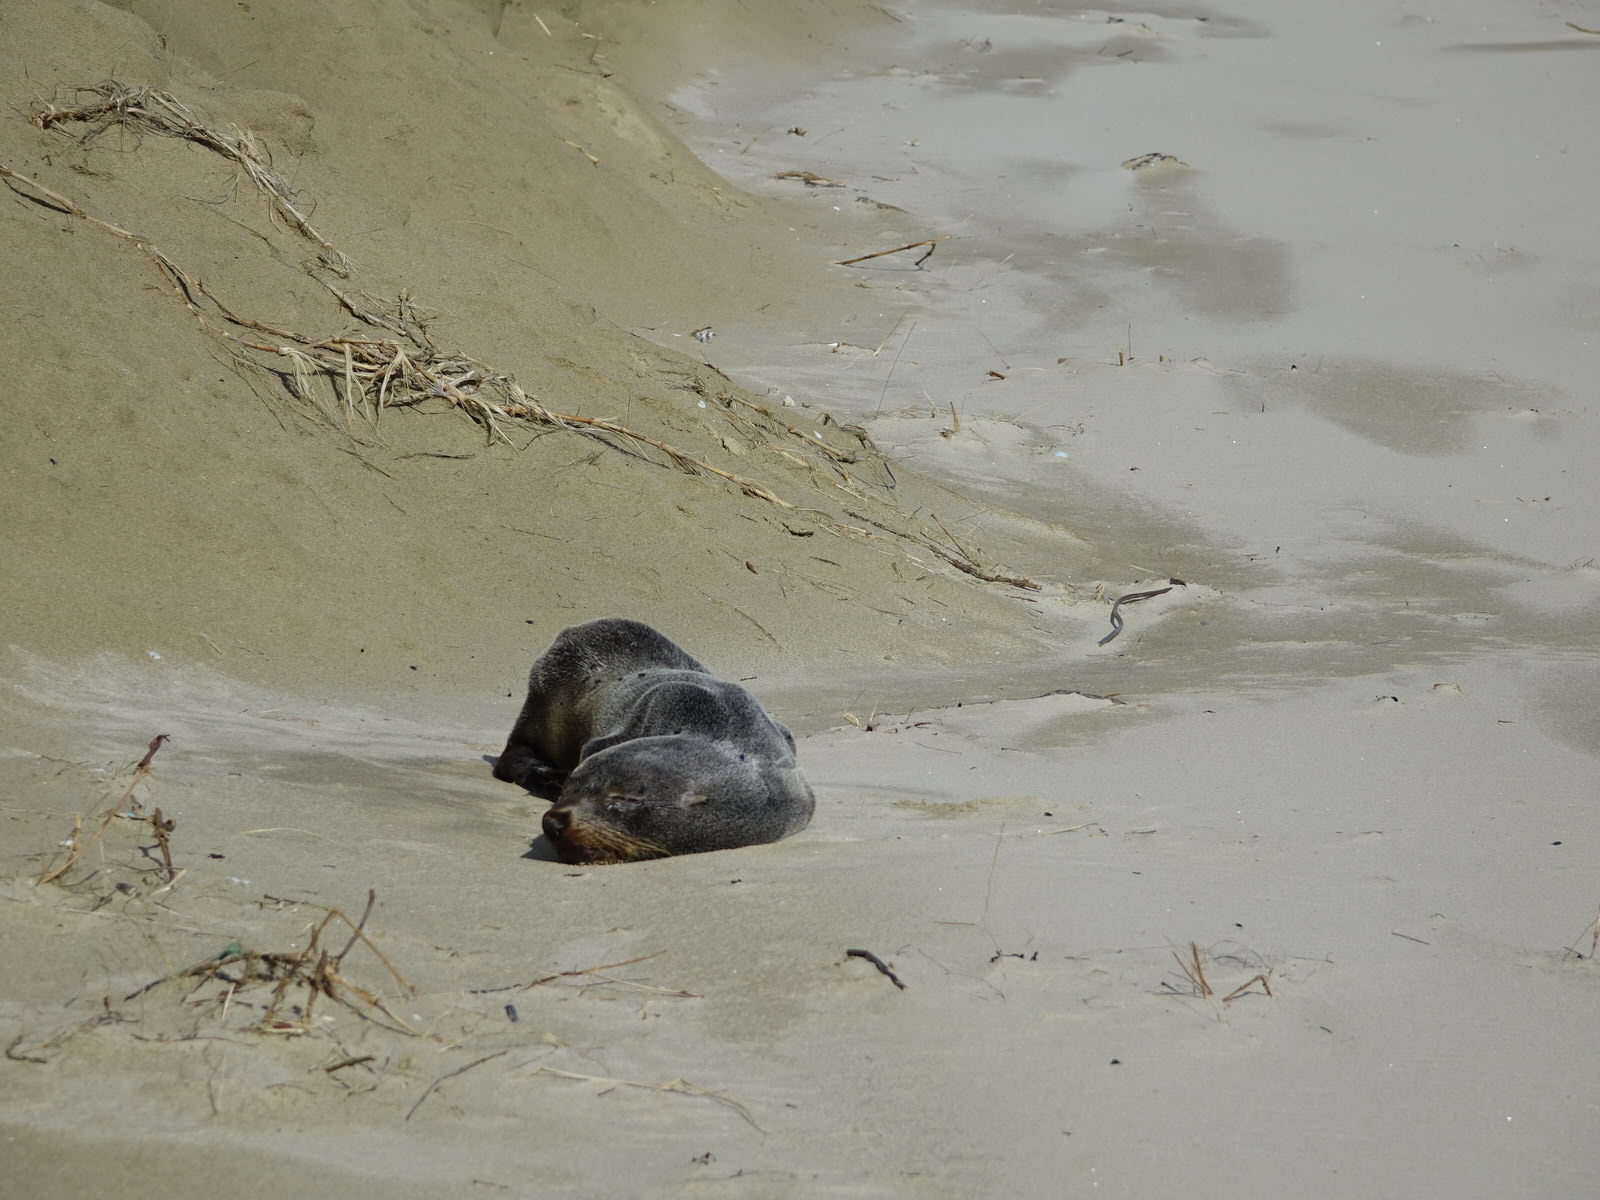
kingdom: Animalia
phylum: Chordata
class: Mammalia
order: Carnivora
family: Otariidae
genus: Arctocephalus
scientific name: Arctocephalus forsteri
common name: New zealand fur seal
